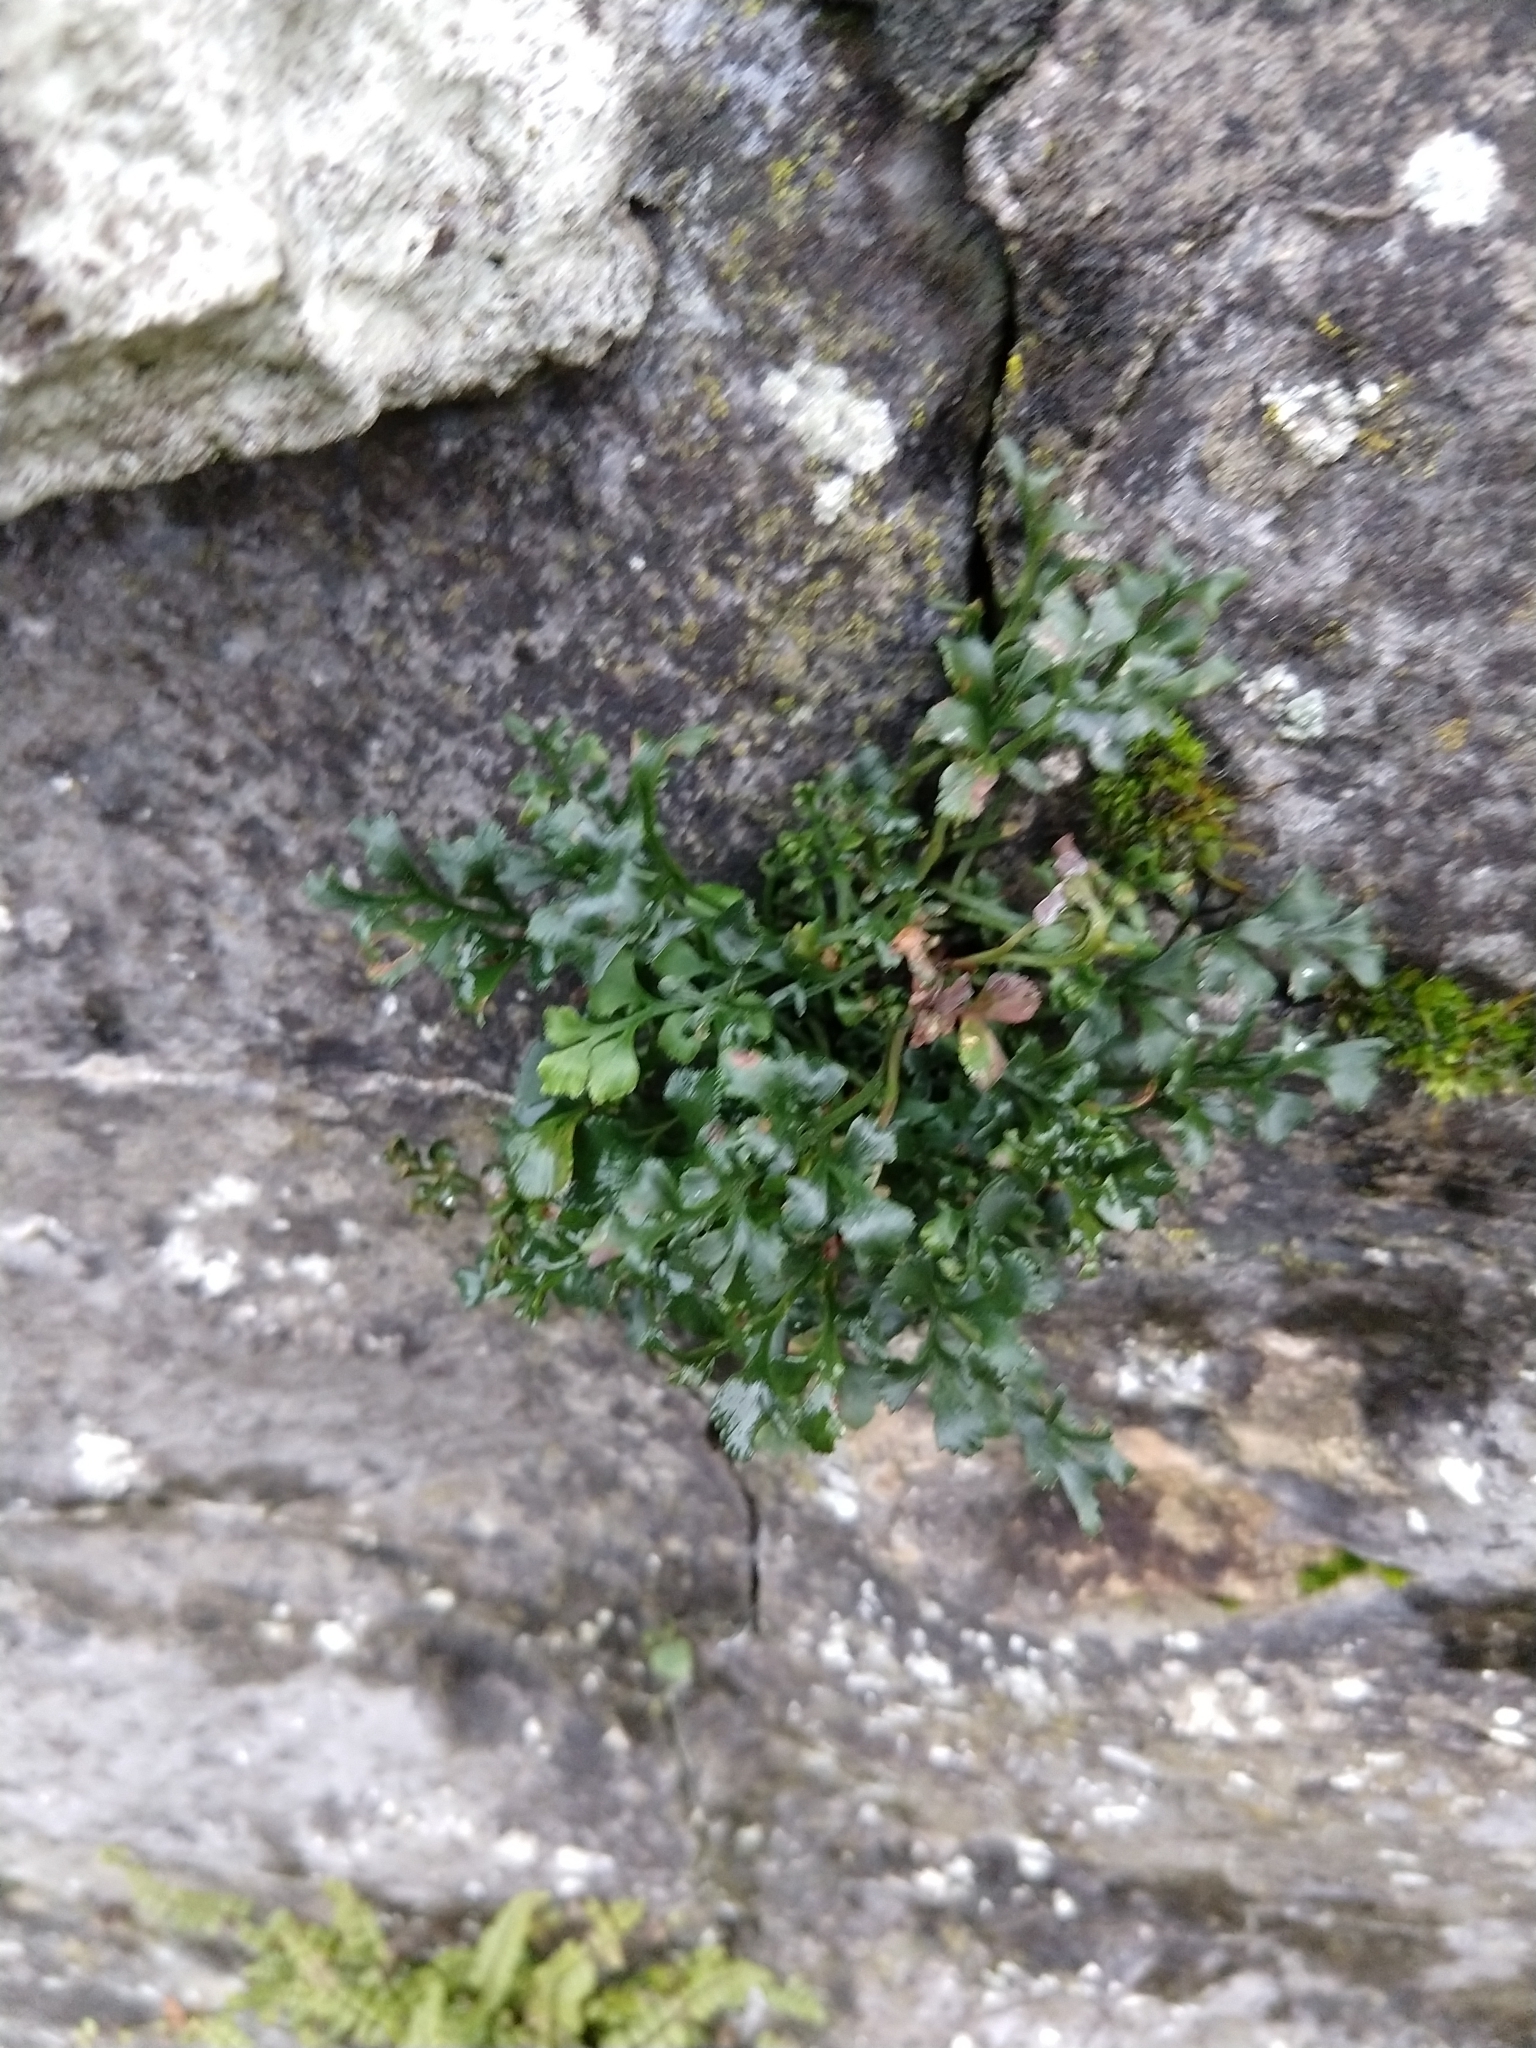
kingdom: Plantae
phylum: Tracheophyta
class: Polypodiopsida
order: Polypodiales
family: Aspleniaceae
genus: Asplenium
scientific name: Asplenium ruta-muraria
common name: Wall-rue
